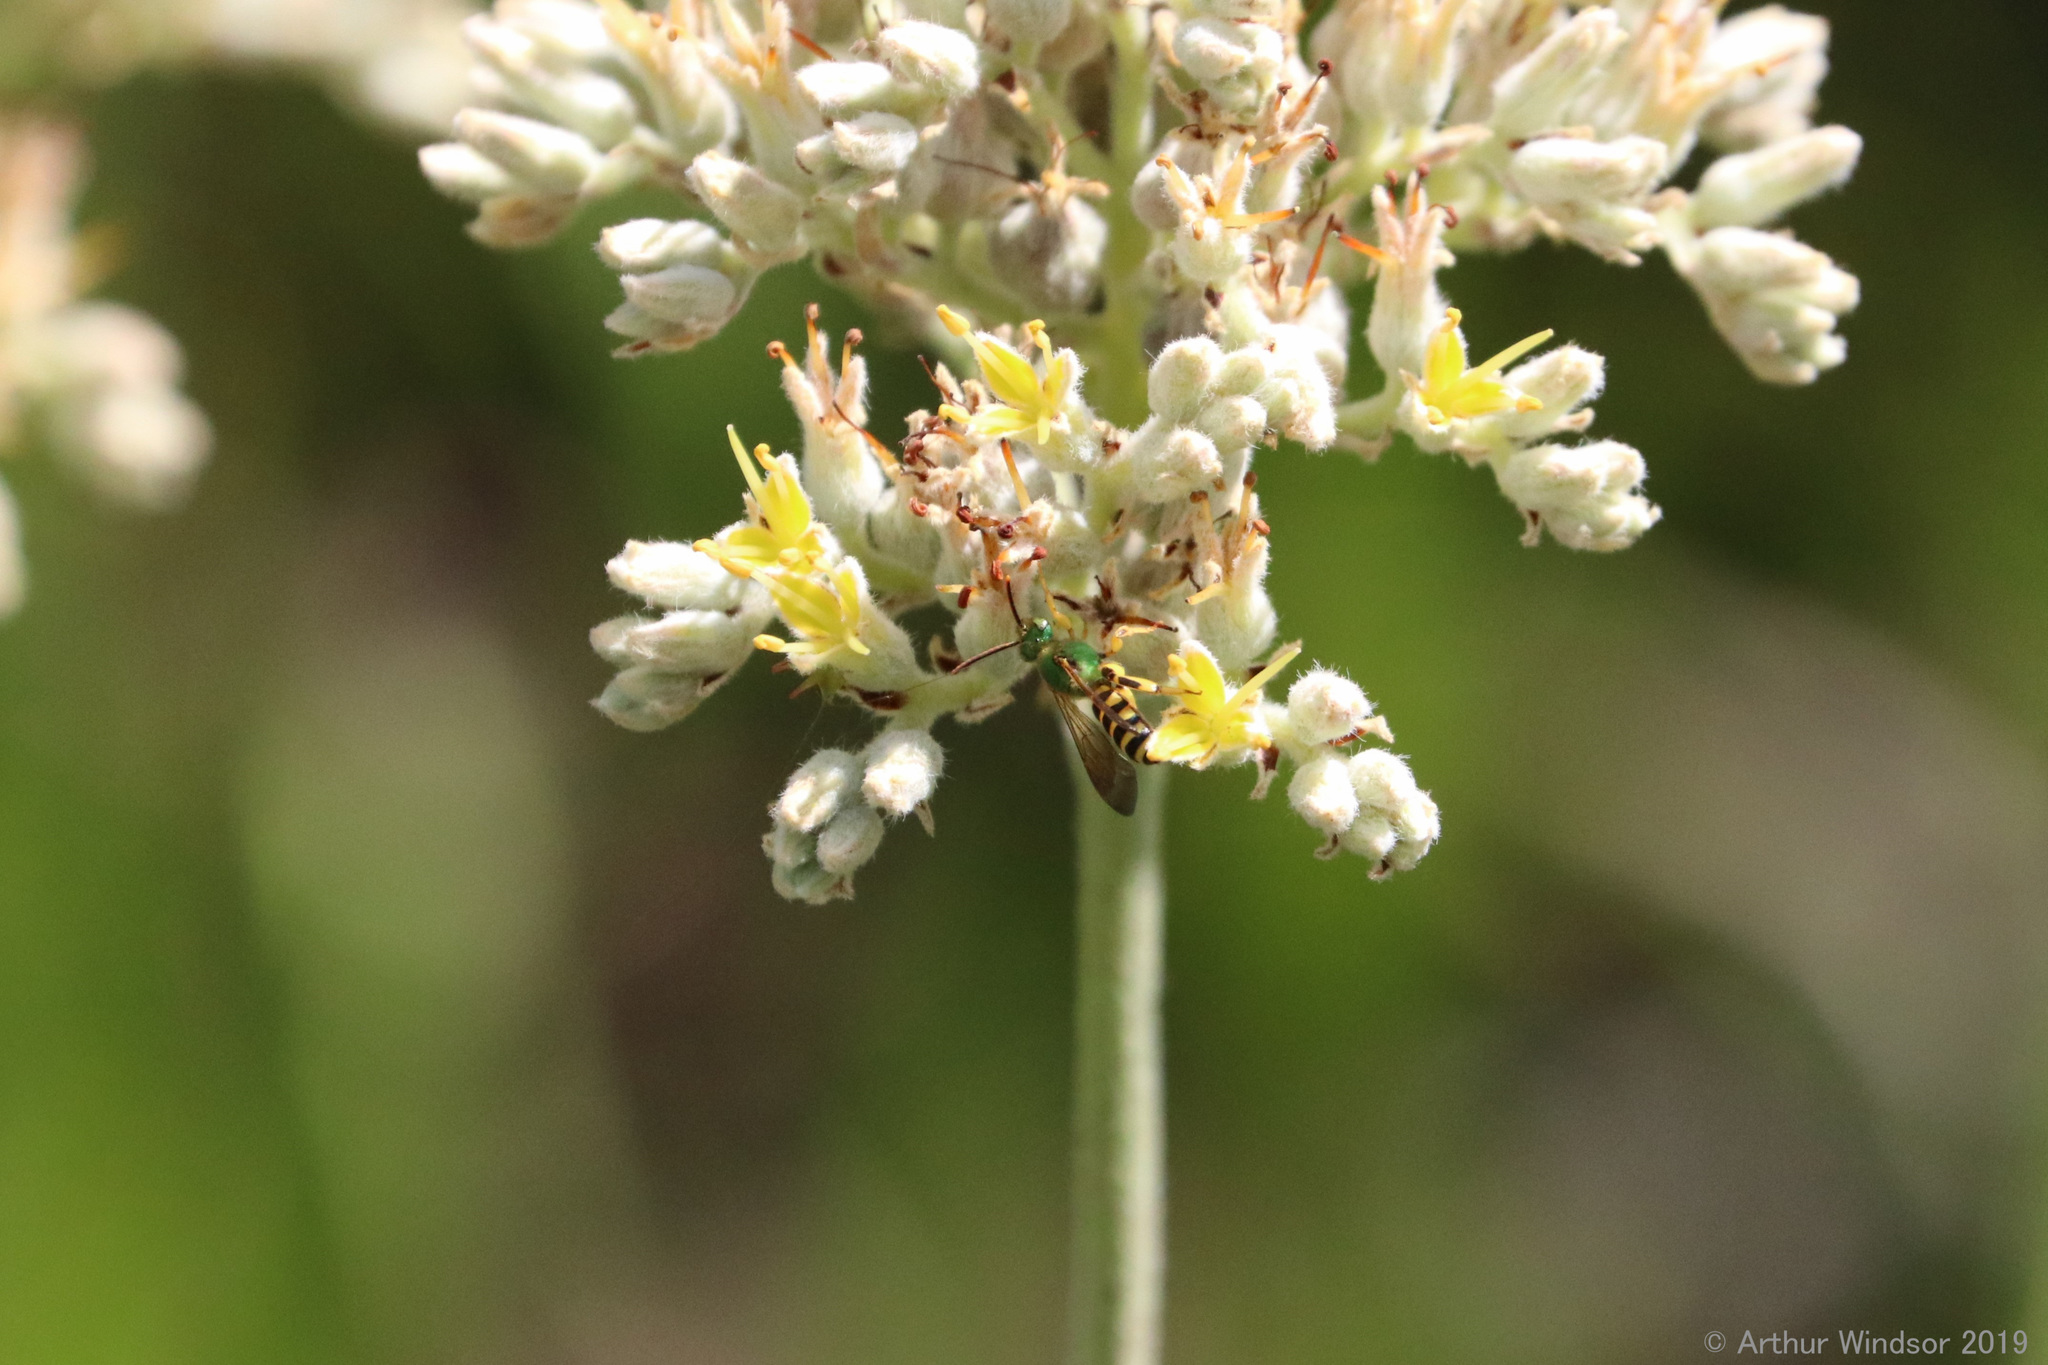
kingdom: Animalia
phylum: Arthropoda
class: Insecta
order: Hymenoptera
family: Halictidae
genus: Agapostemon
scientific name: Agapostemon splendens
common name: Brown-winged striped sweat bee
